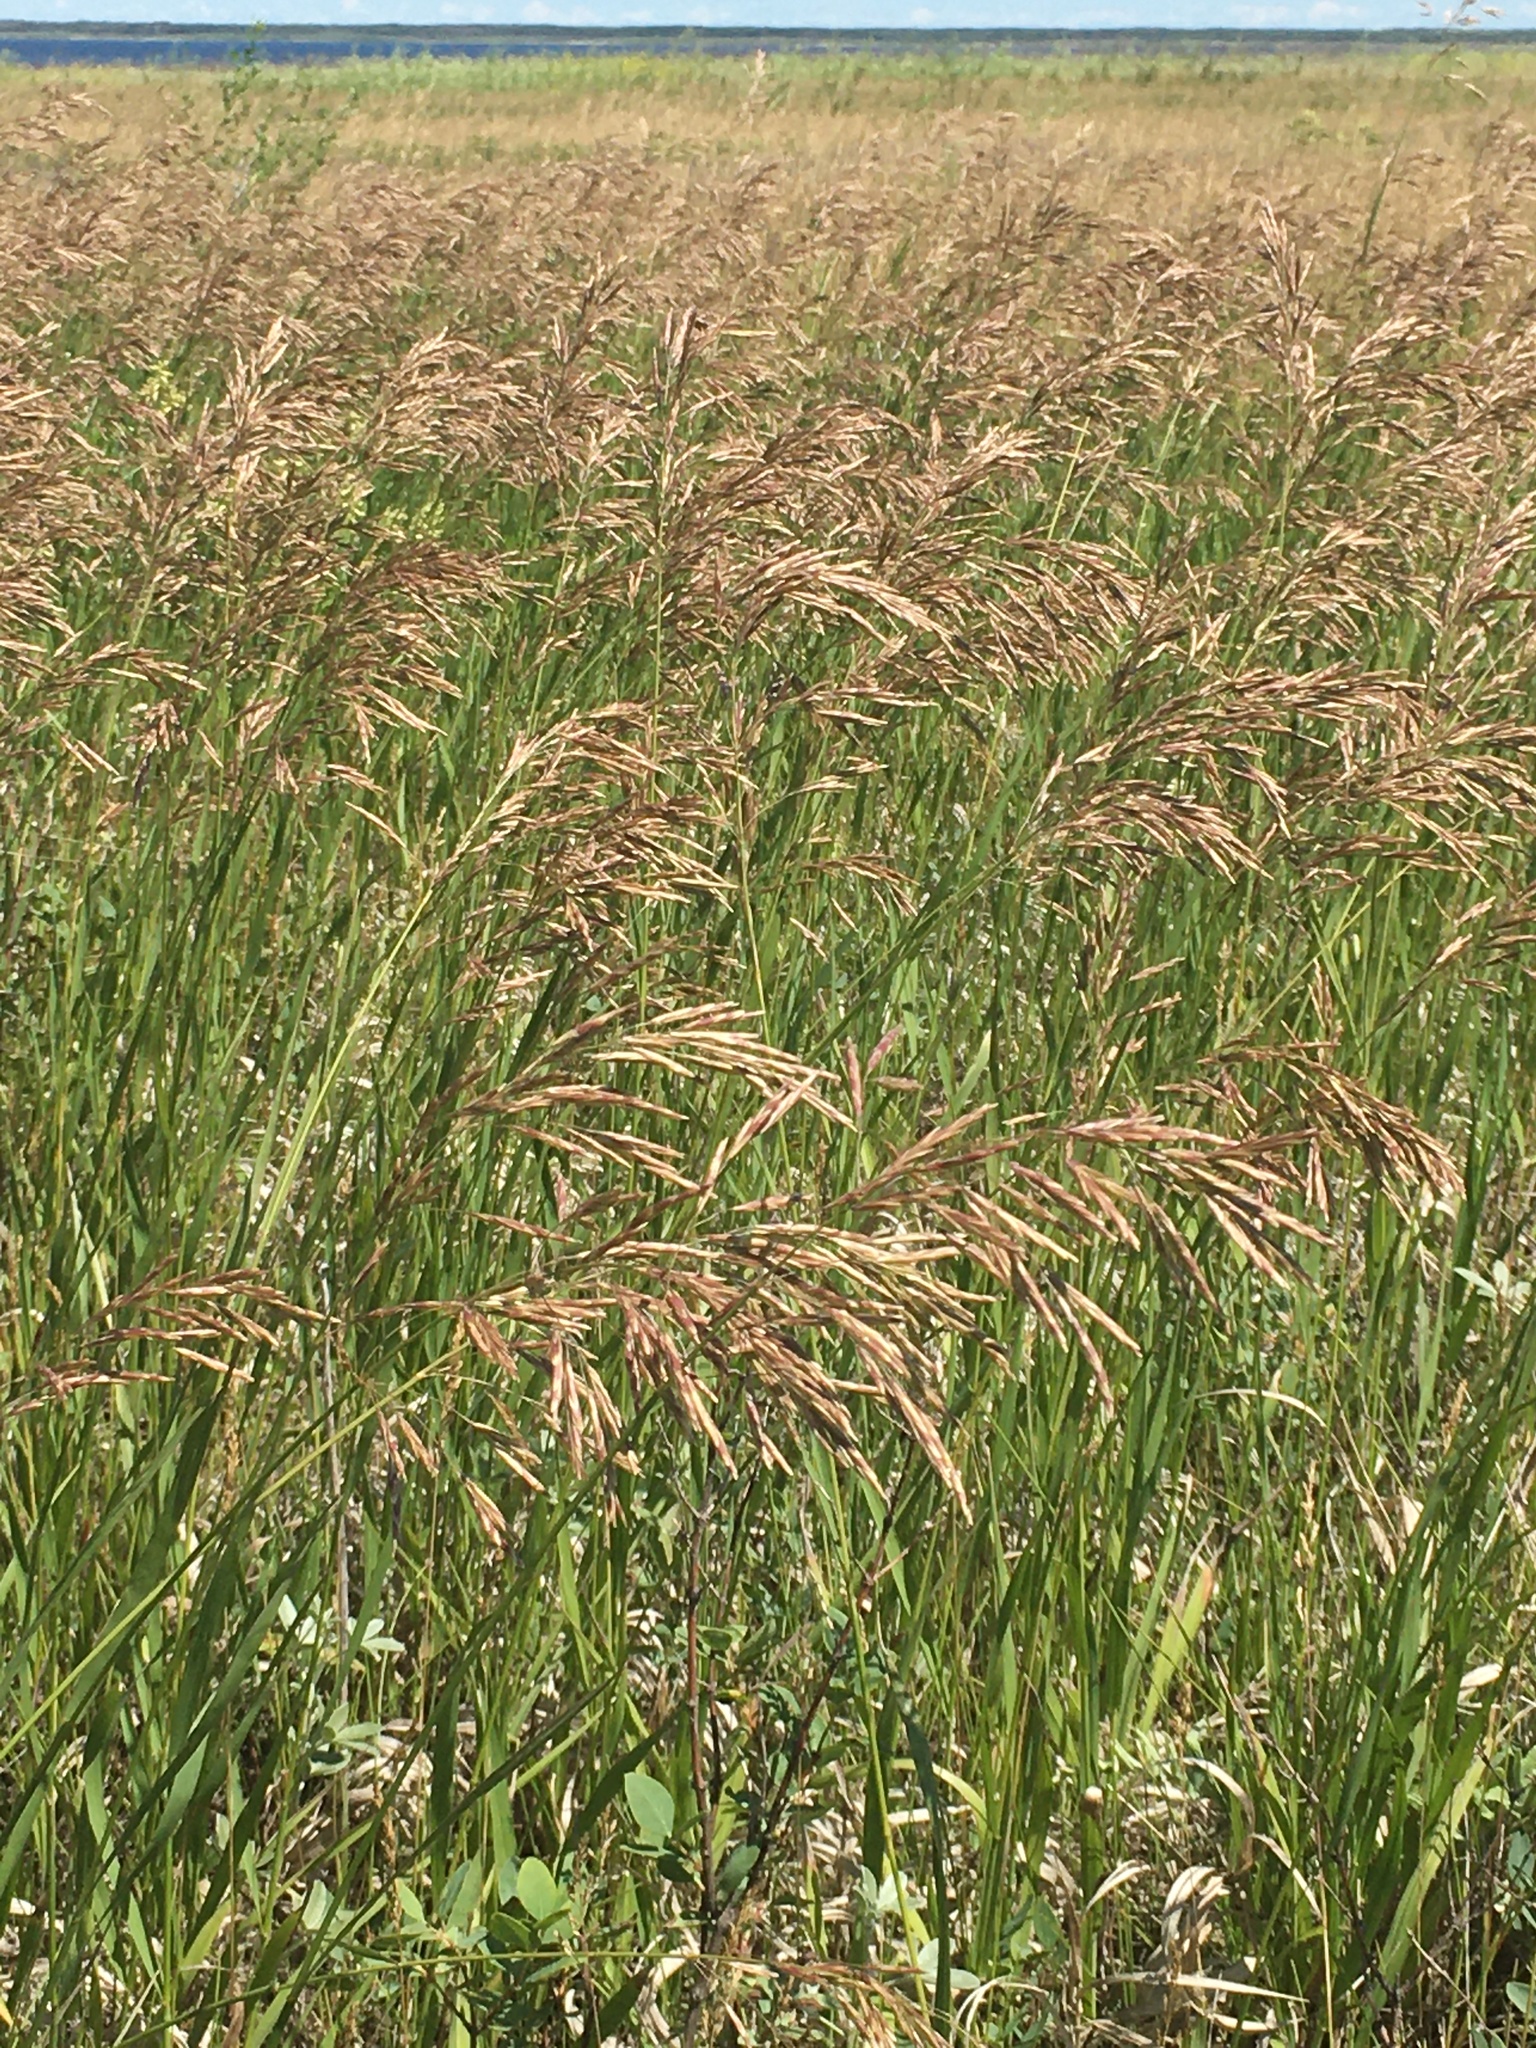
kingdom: Plantae
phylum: Tracheophyta
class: Liliopsida
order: Poales
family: Poaceae
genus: Bromus
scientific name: Bromus inermis
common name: Smooth brome
